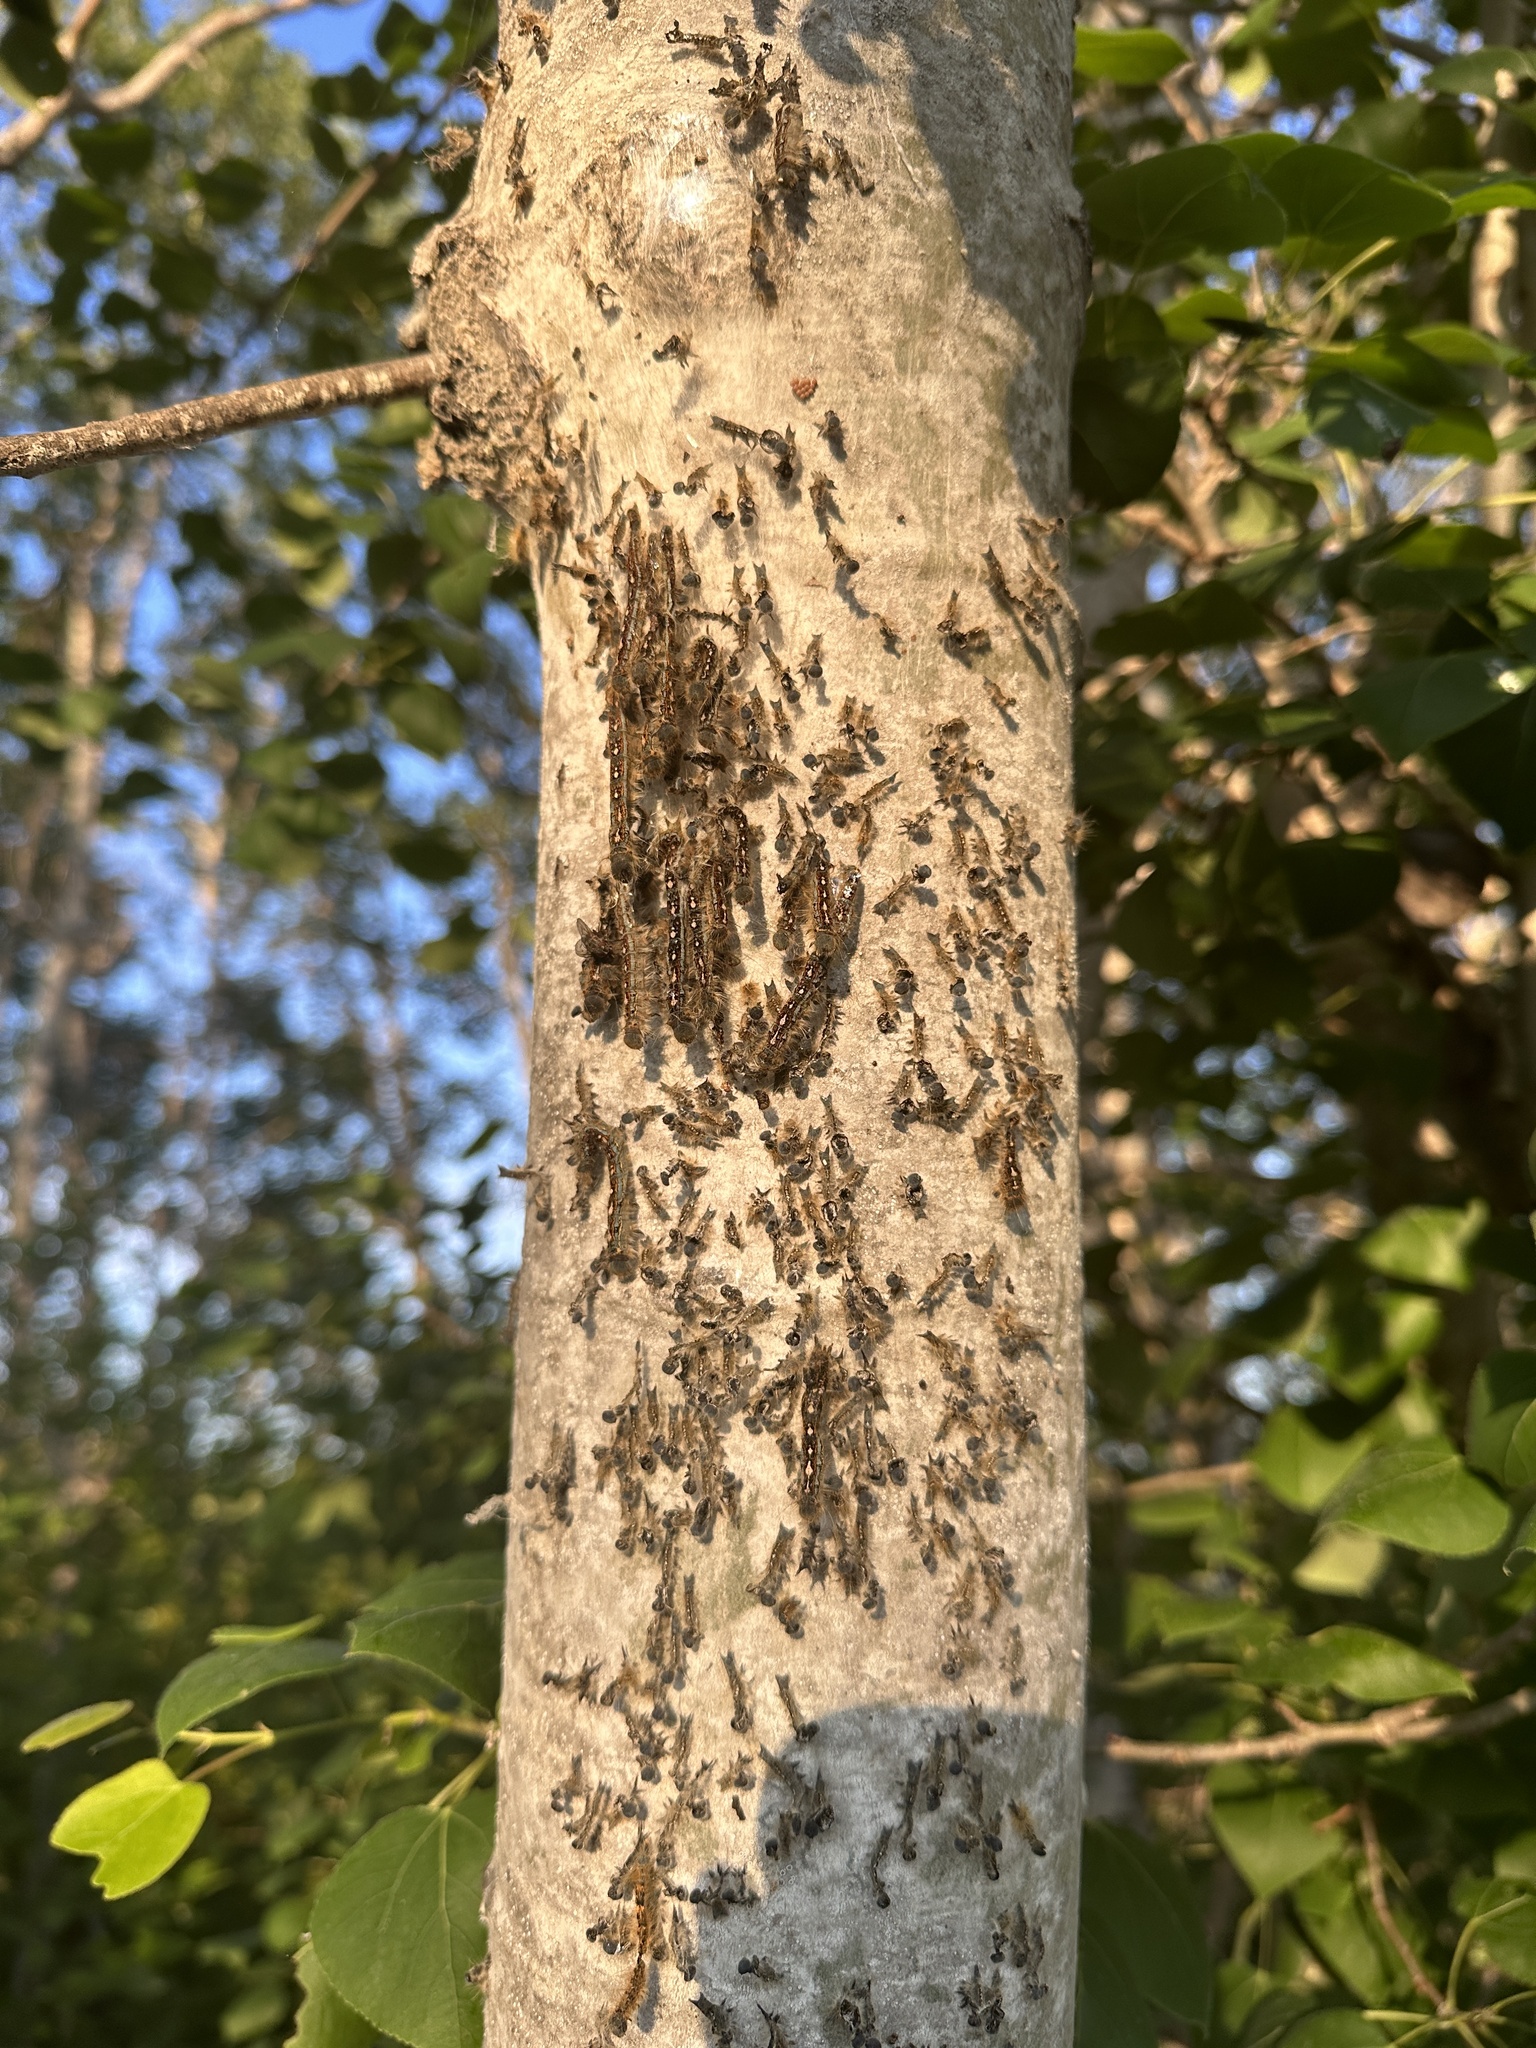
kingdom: Animalia
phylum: Arthropoda
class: Insecta
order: Lepidoptera
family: Lasiocampidae
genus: Malacosoma
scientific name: Malacosoma disstria
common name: Forest tent caterpillar
